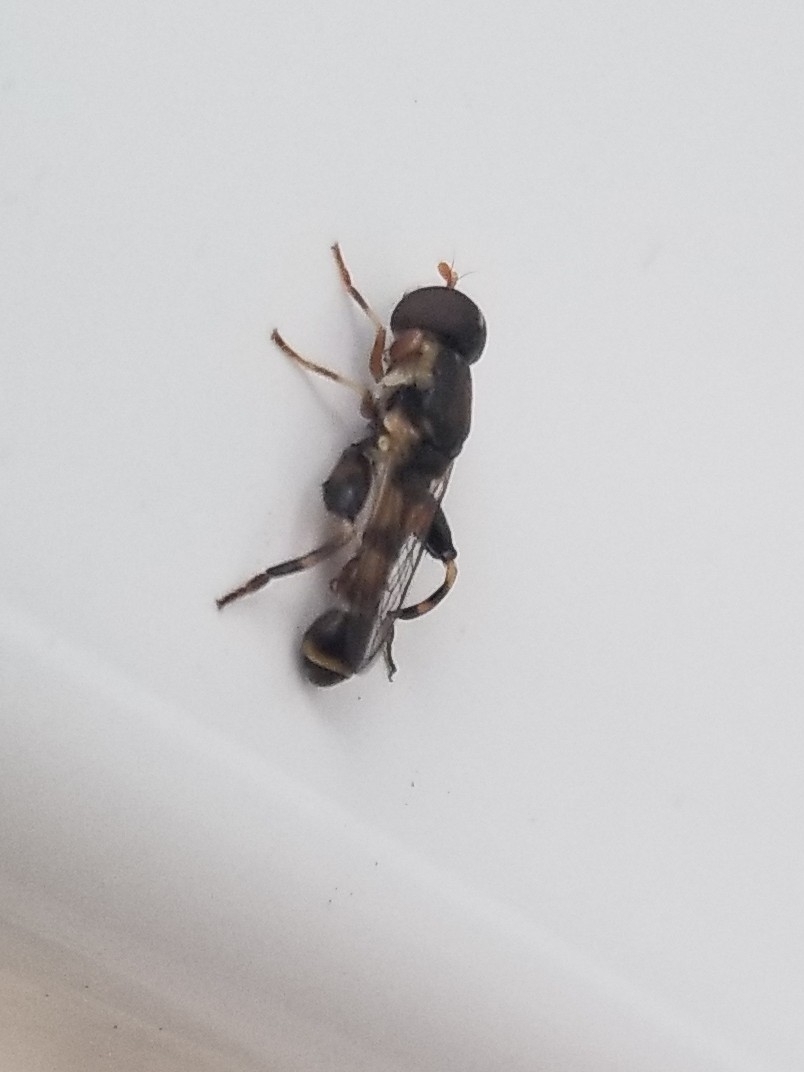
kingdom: Animalia
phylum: Arthropoda
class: Insecta
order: Diptera
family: Syrphidae
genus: Syritta
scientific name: Syritta pipiens
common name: Hover fly
